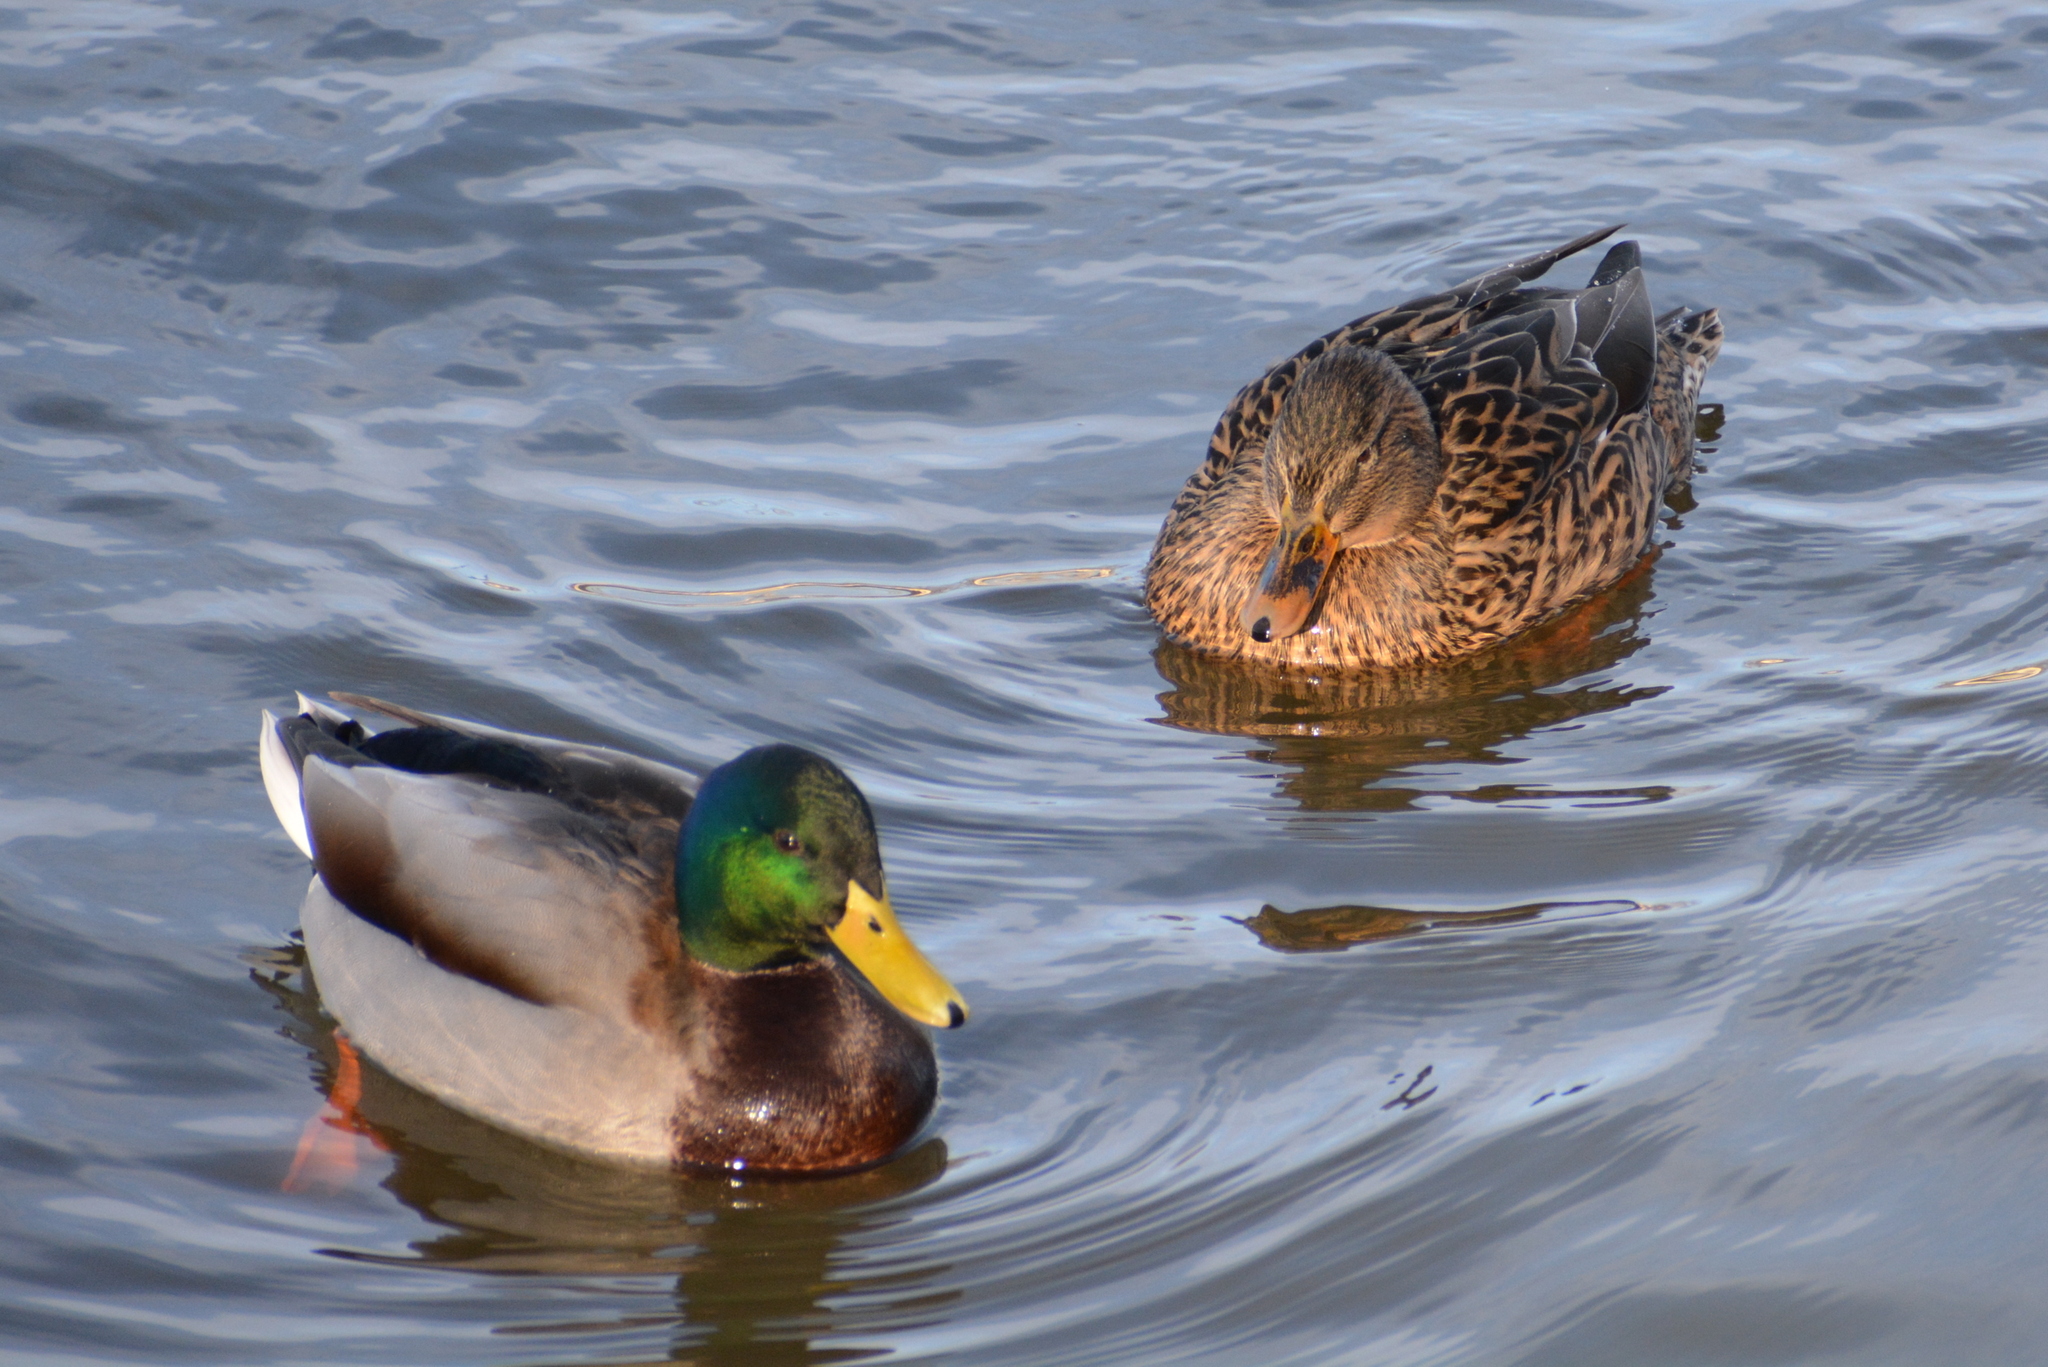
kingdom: Animalia
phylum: Chordata
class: Aves
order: Anseriformes
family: Anatidae
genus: Anas
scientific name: Anas platyrhynchos
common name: Mallard
